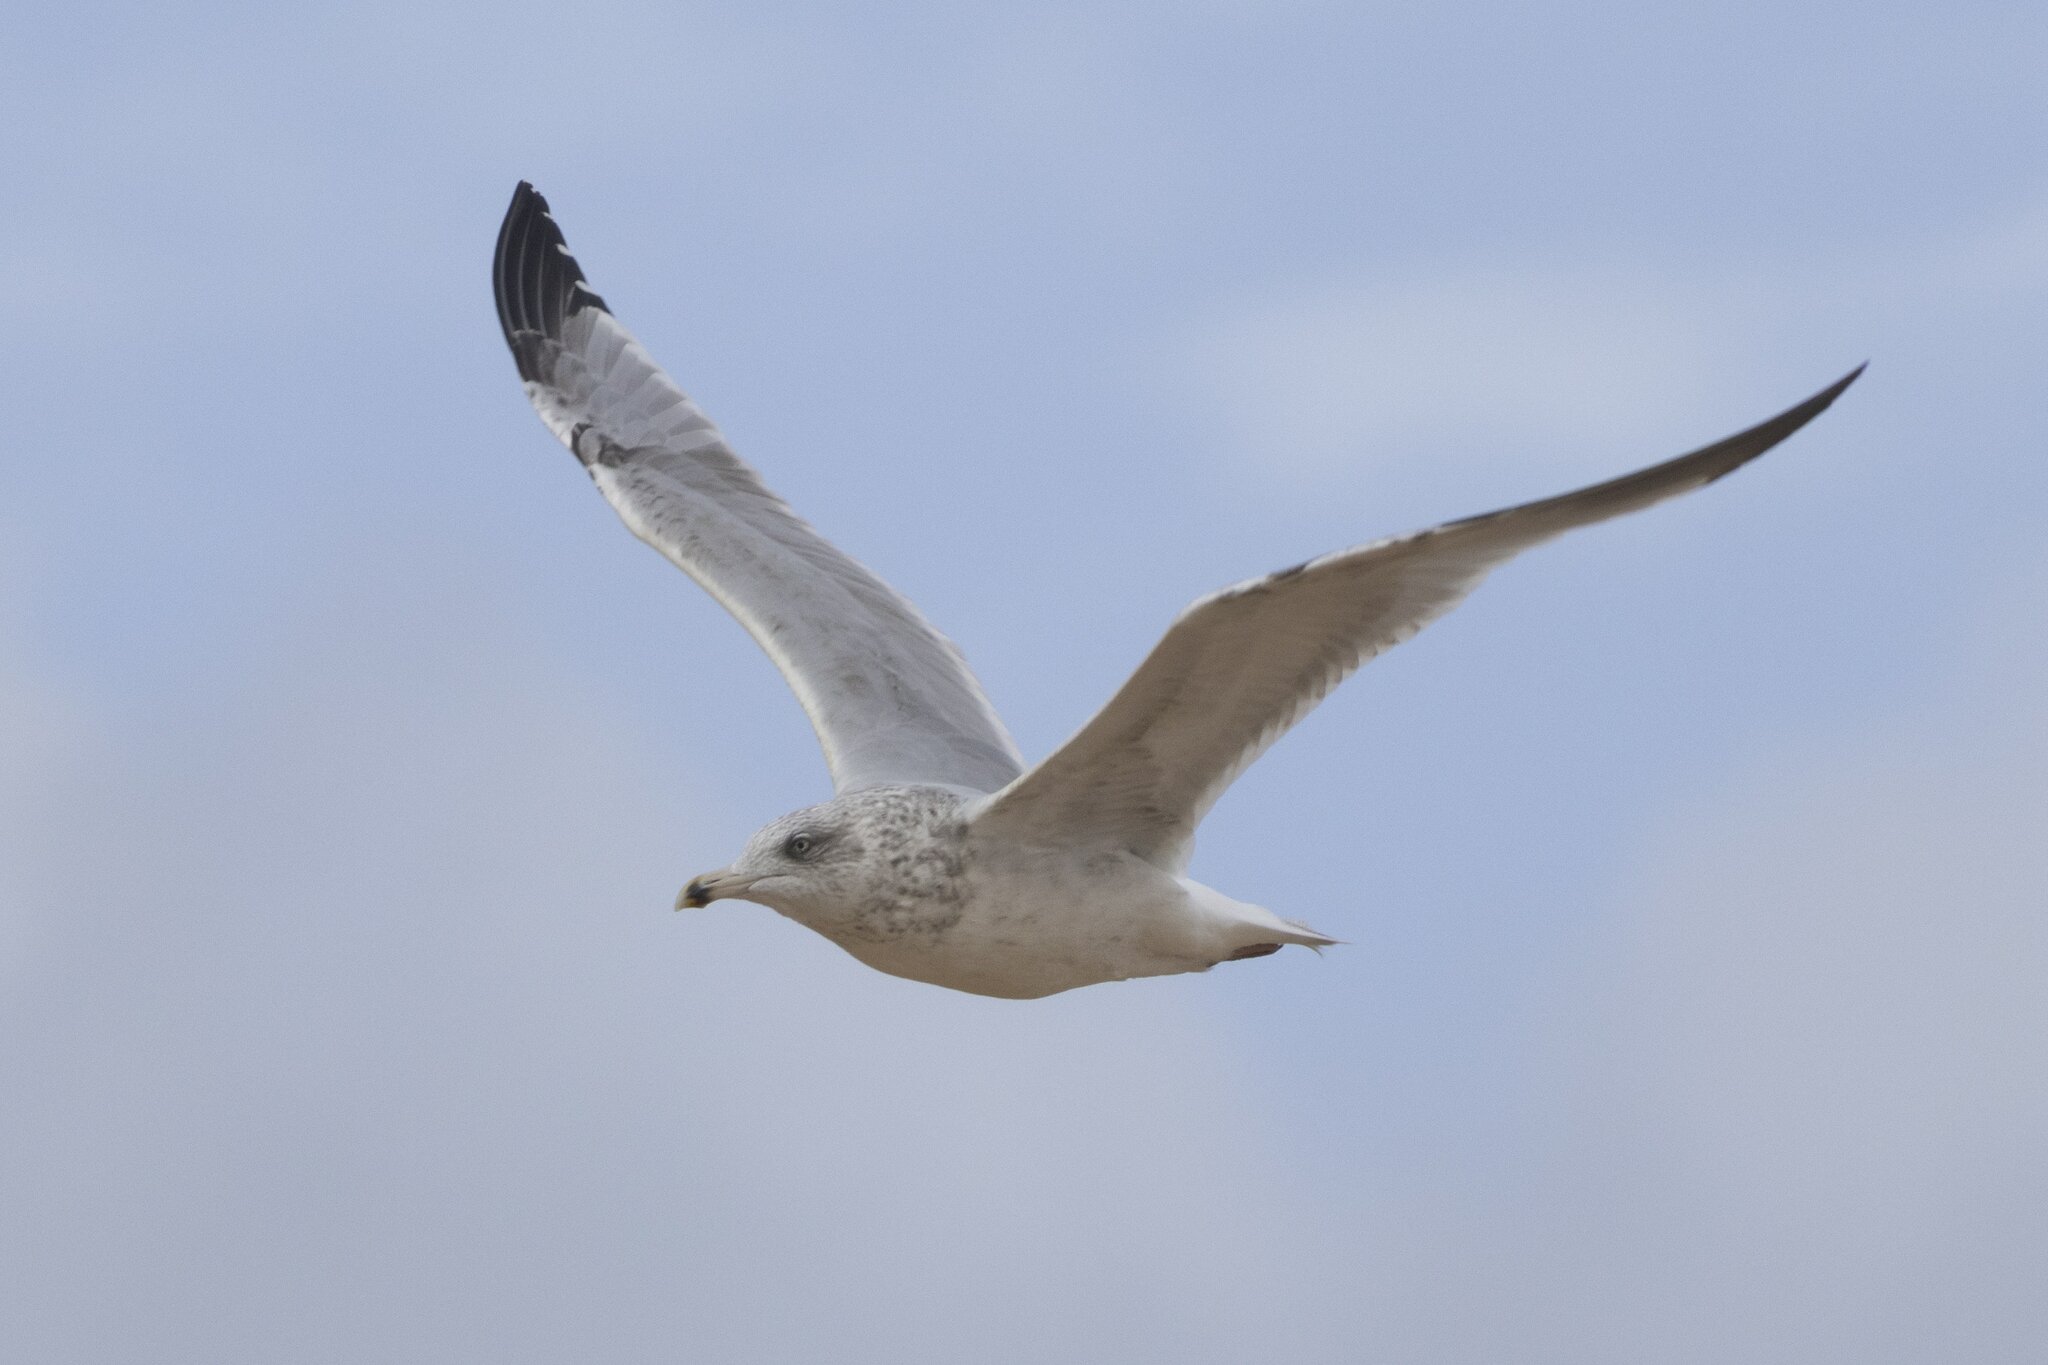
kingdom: Animalia
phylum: Chordata
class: Aves
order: Charadriiformes
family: Laridae
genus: Larus
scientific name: Larus argentatus
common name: Herring gull
